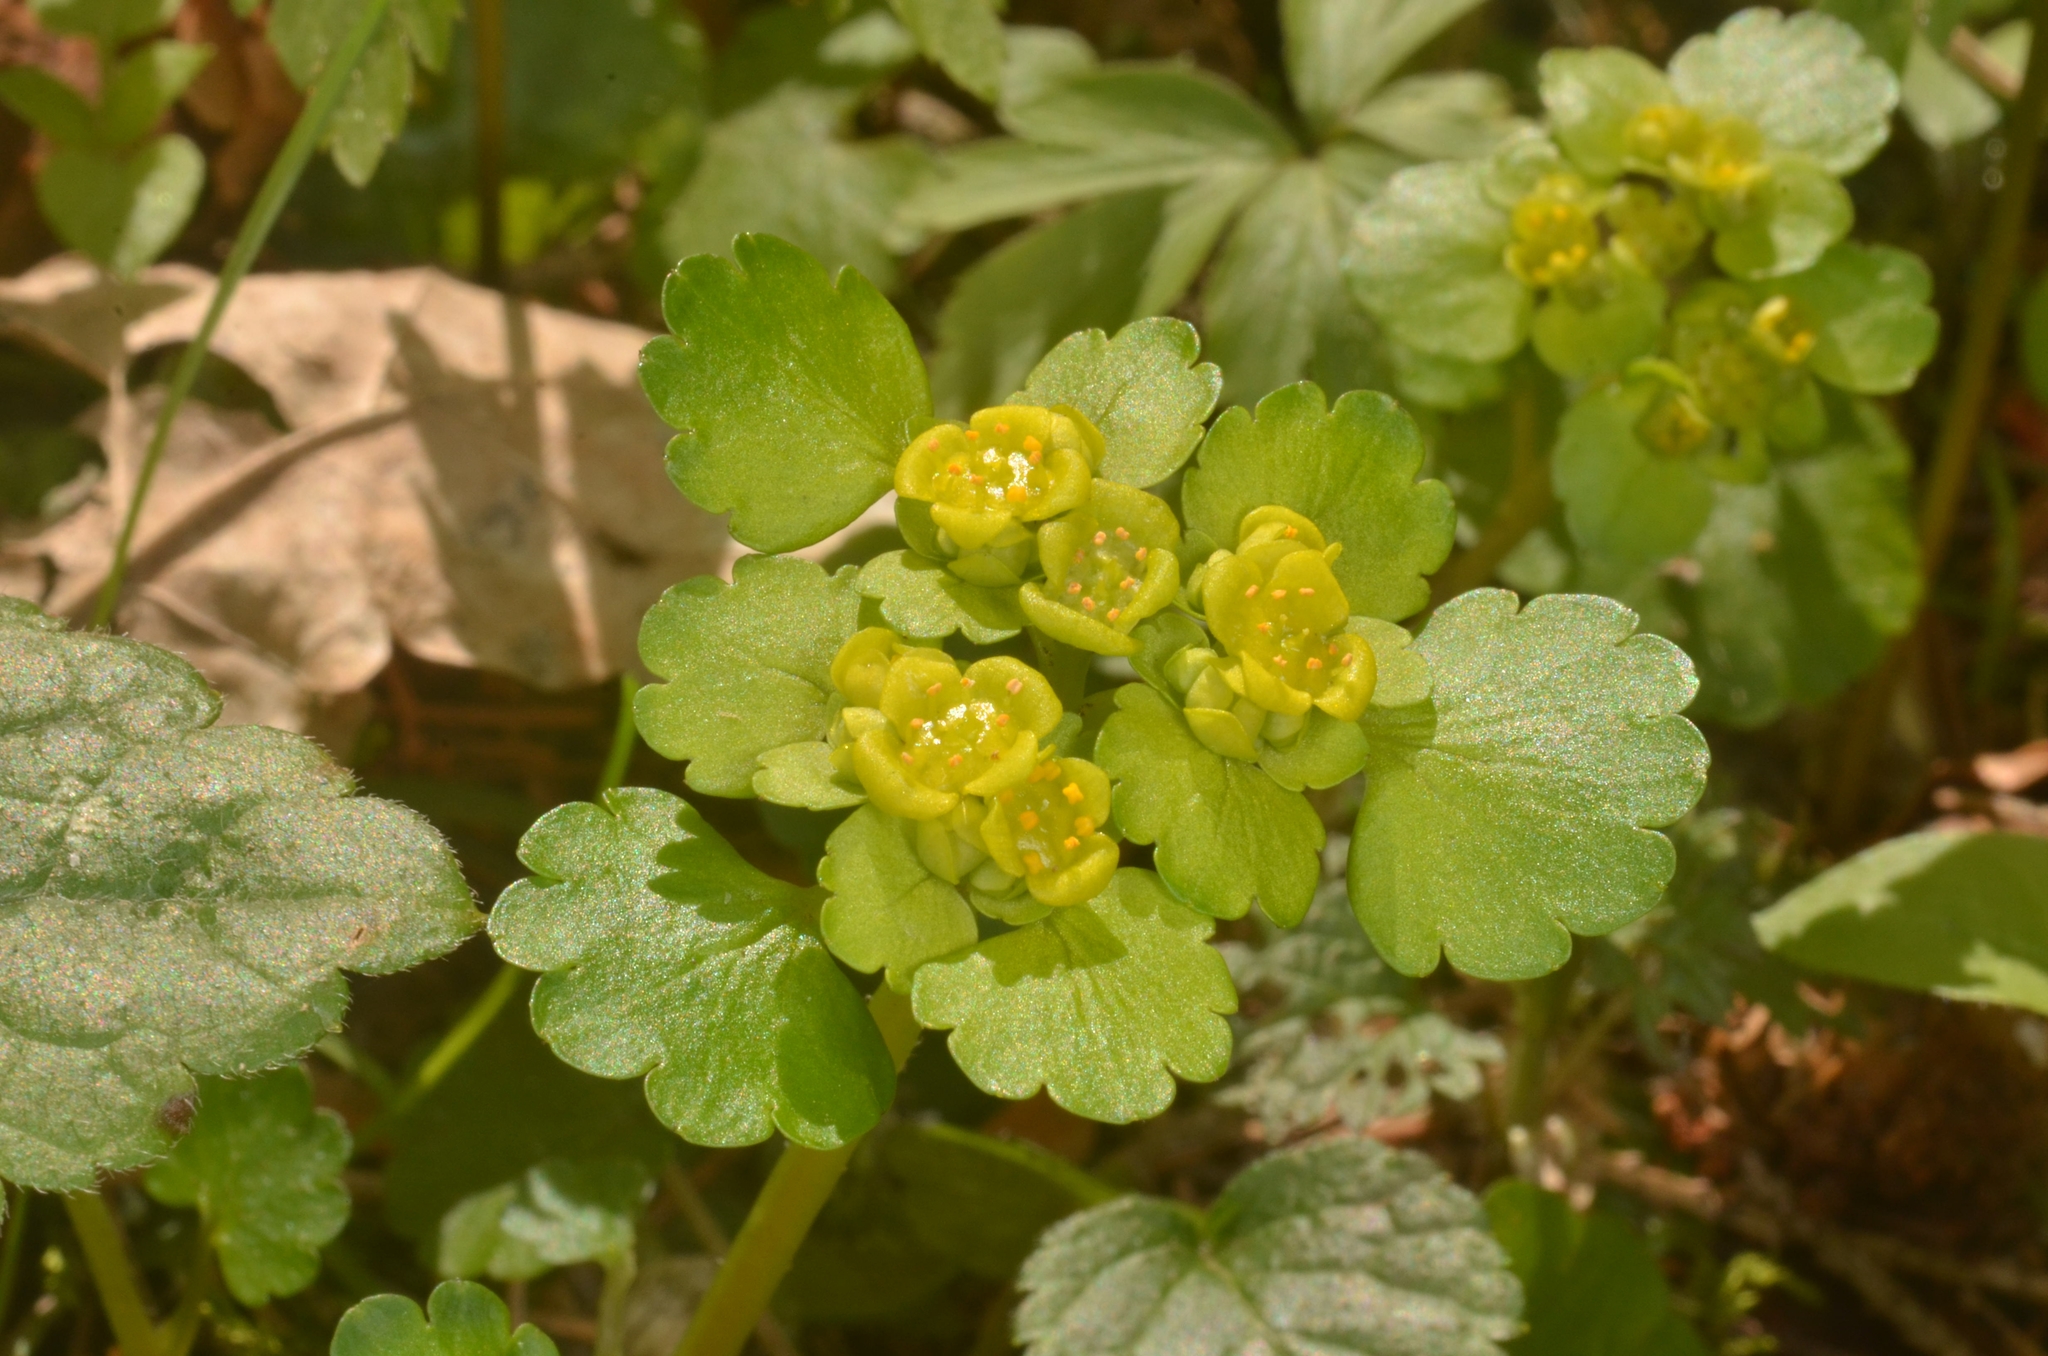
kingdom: Plantae
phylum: Tracheophyta
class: Magnoliopsida
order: Saxifragales
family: Saxifragaceae
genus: Chrysosplenium
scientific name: Chrysosplenium alternifolium
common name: Alternate-leaved golden-saxifrage
